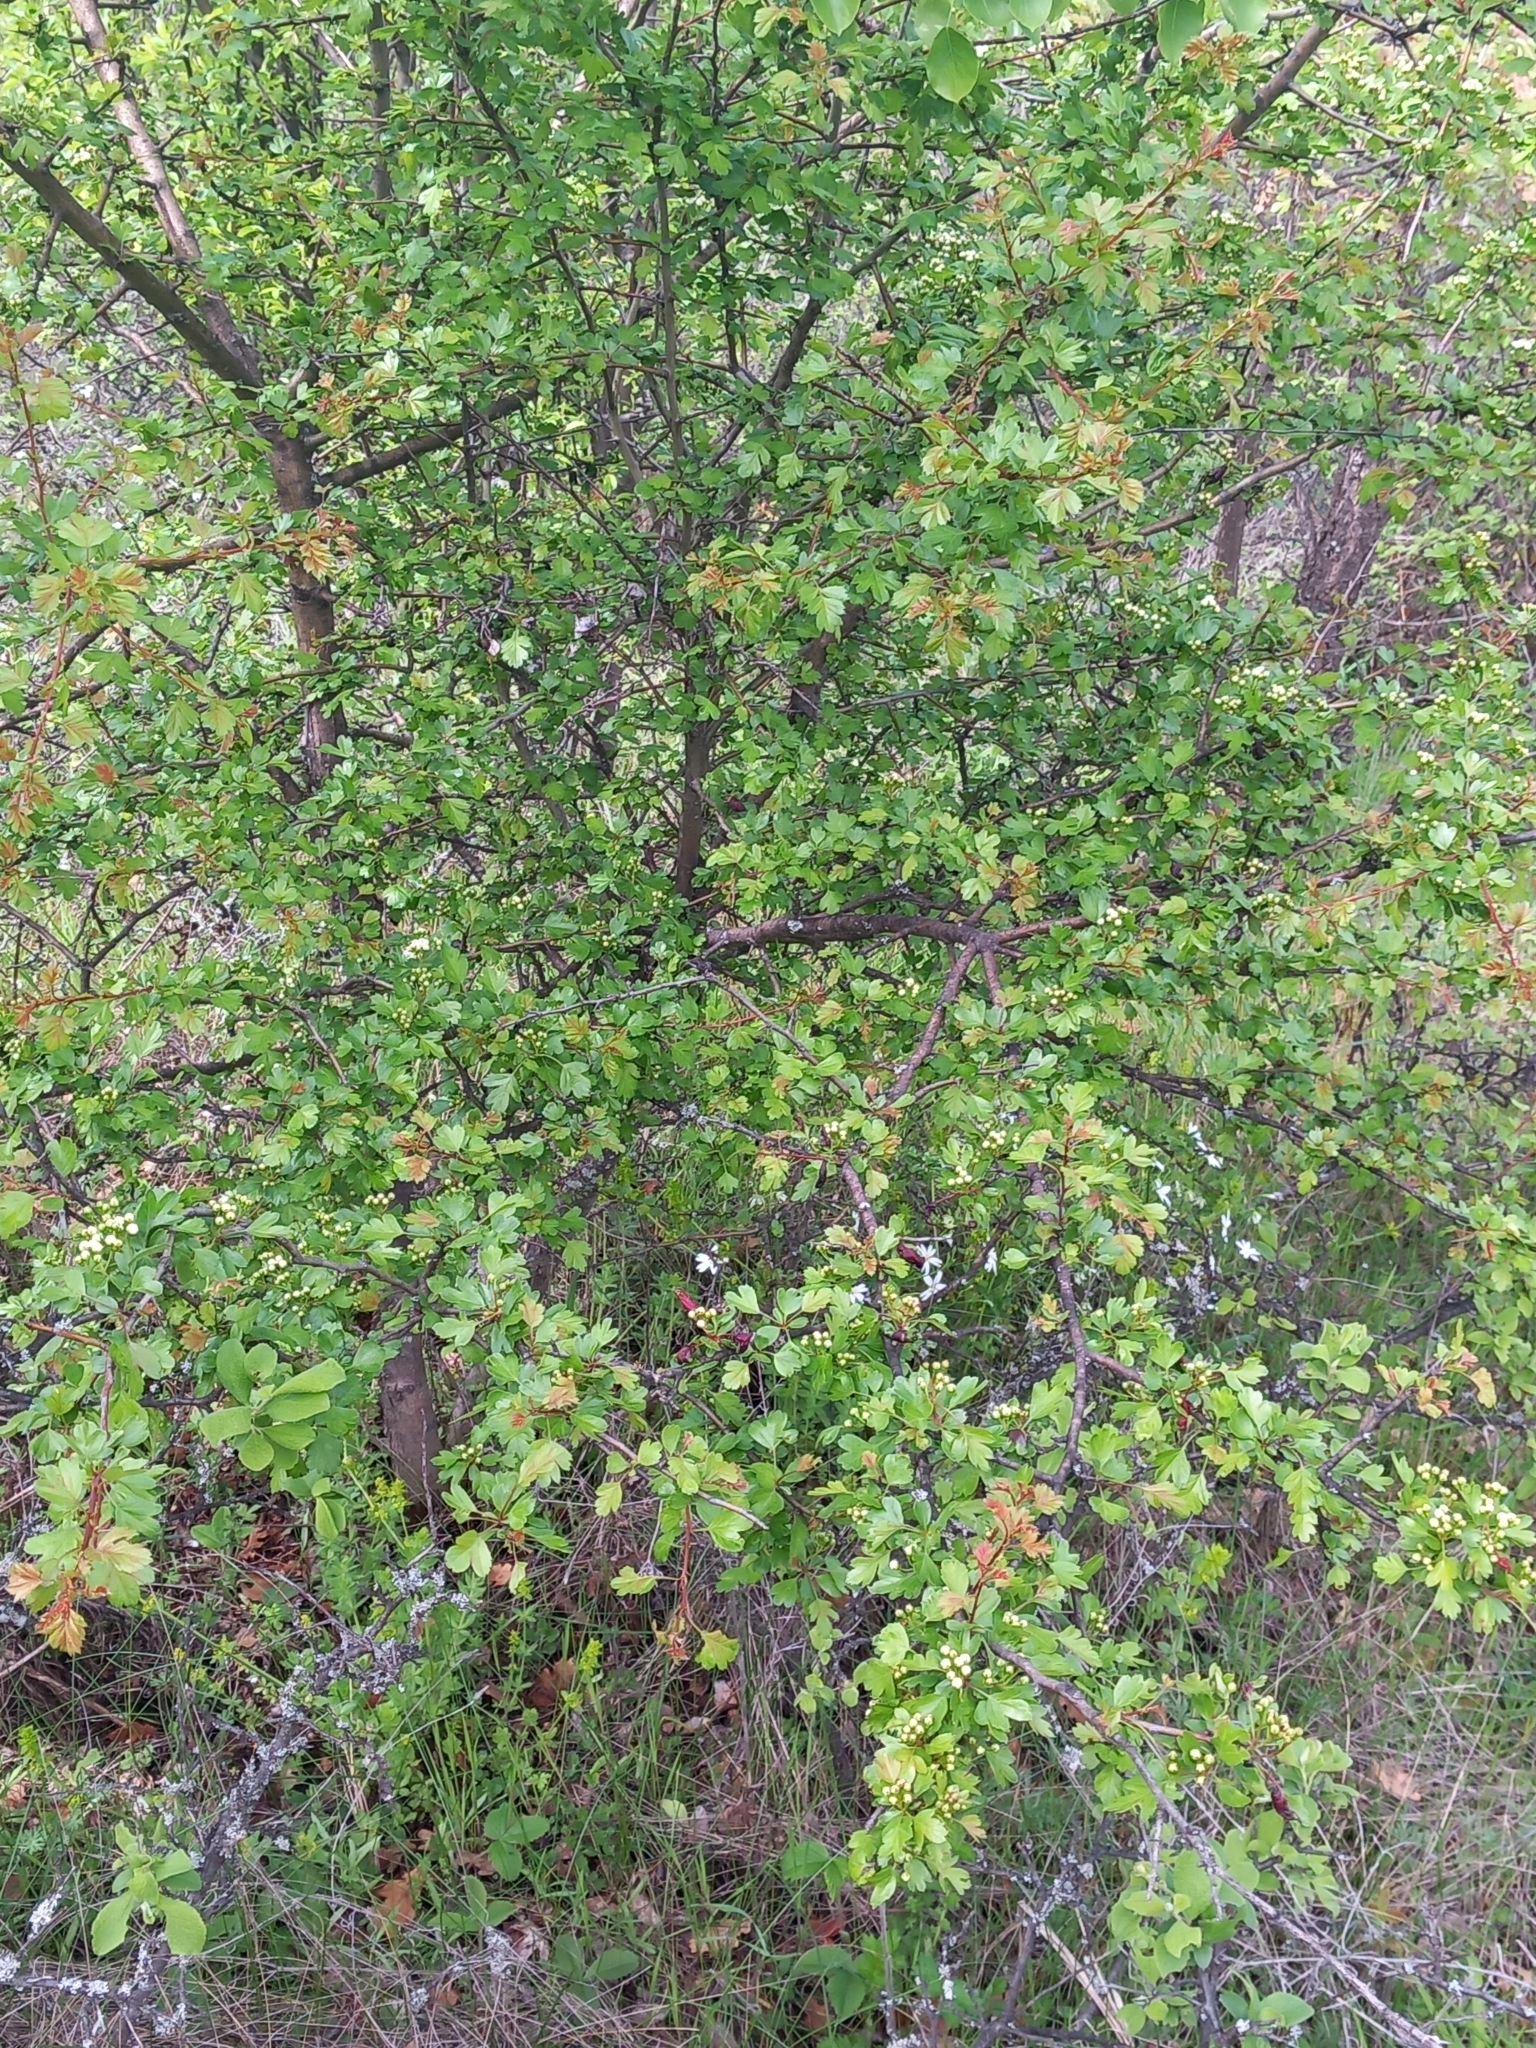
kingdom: Plantae
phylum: Tracheophyta
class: Magnoliopsida
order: Rosales
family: Rosaceae
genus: Crataegus
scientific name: Crataegus monogyna
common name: Hawthorn
